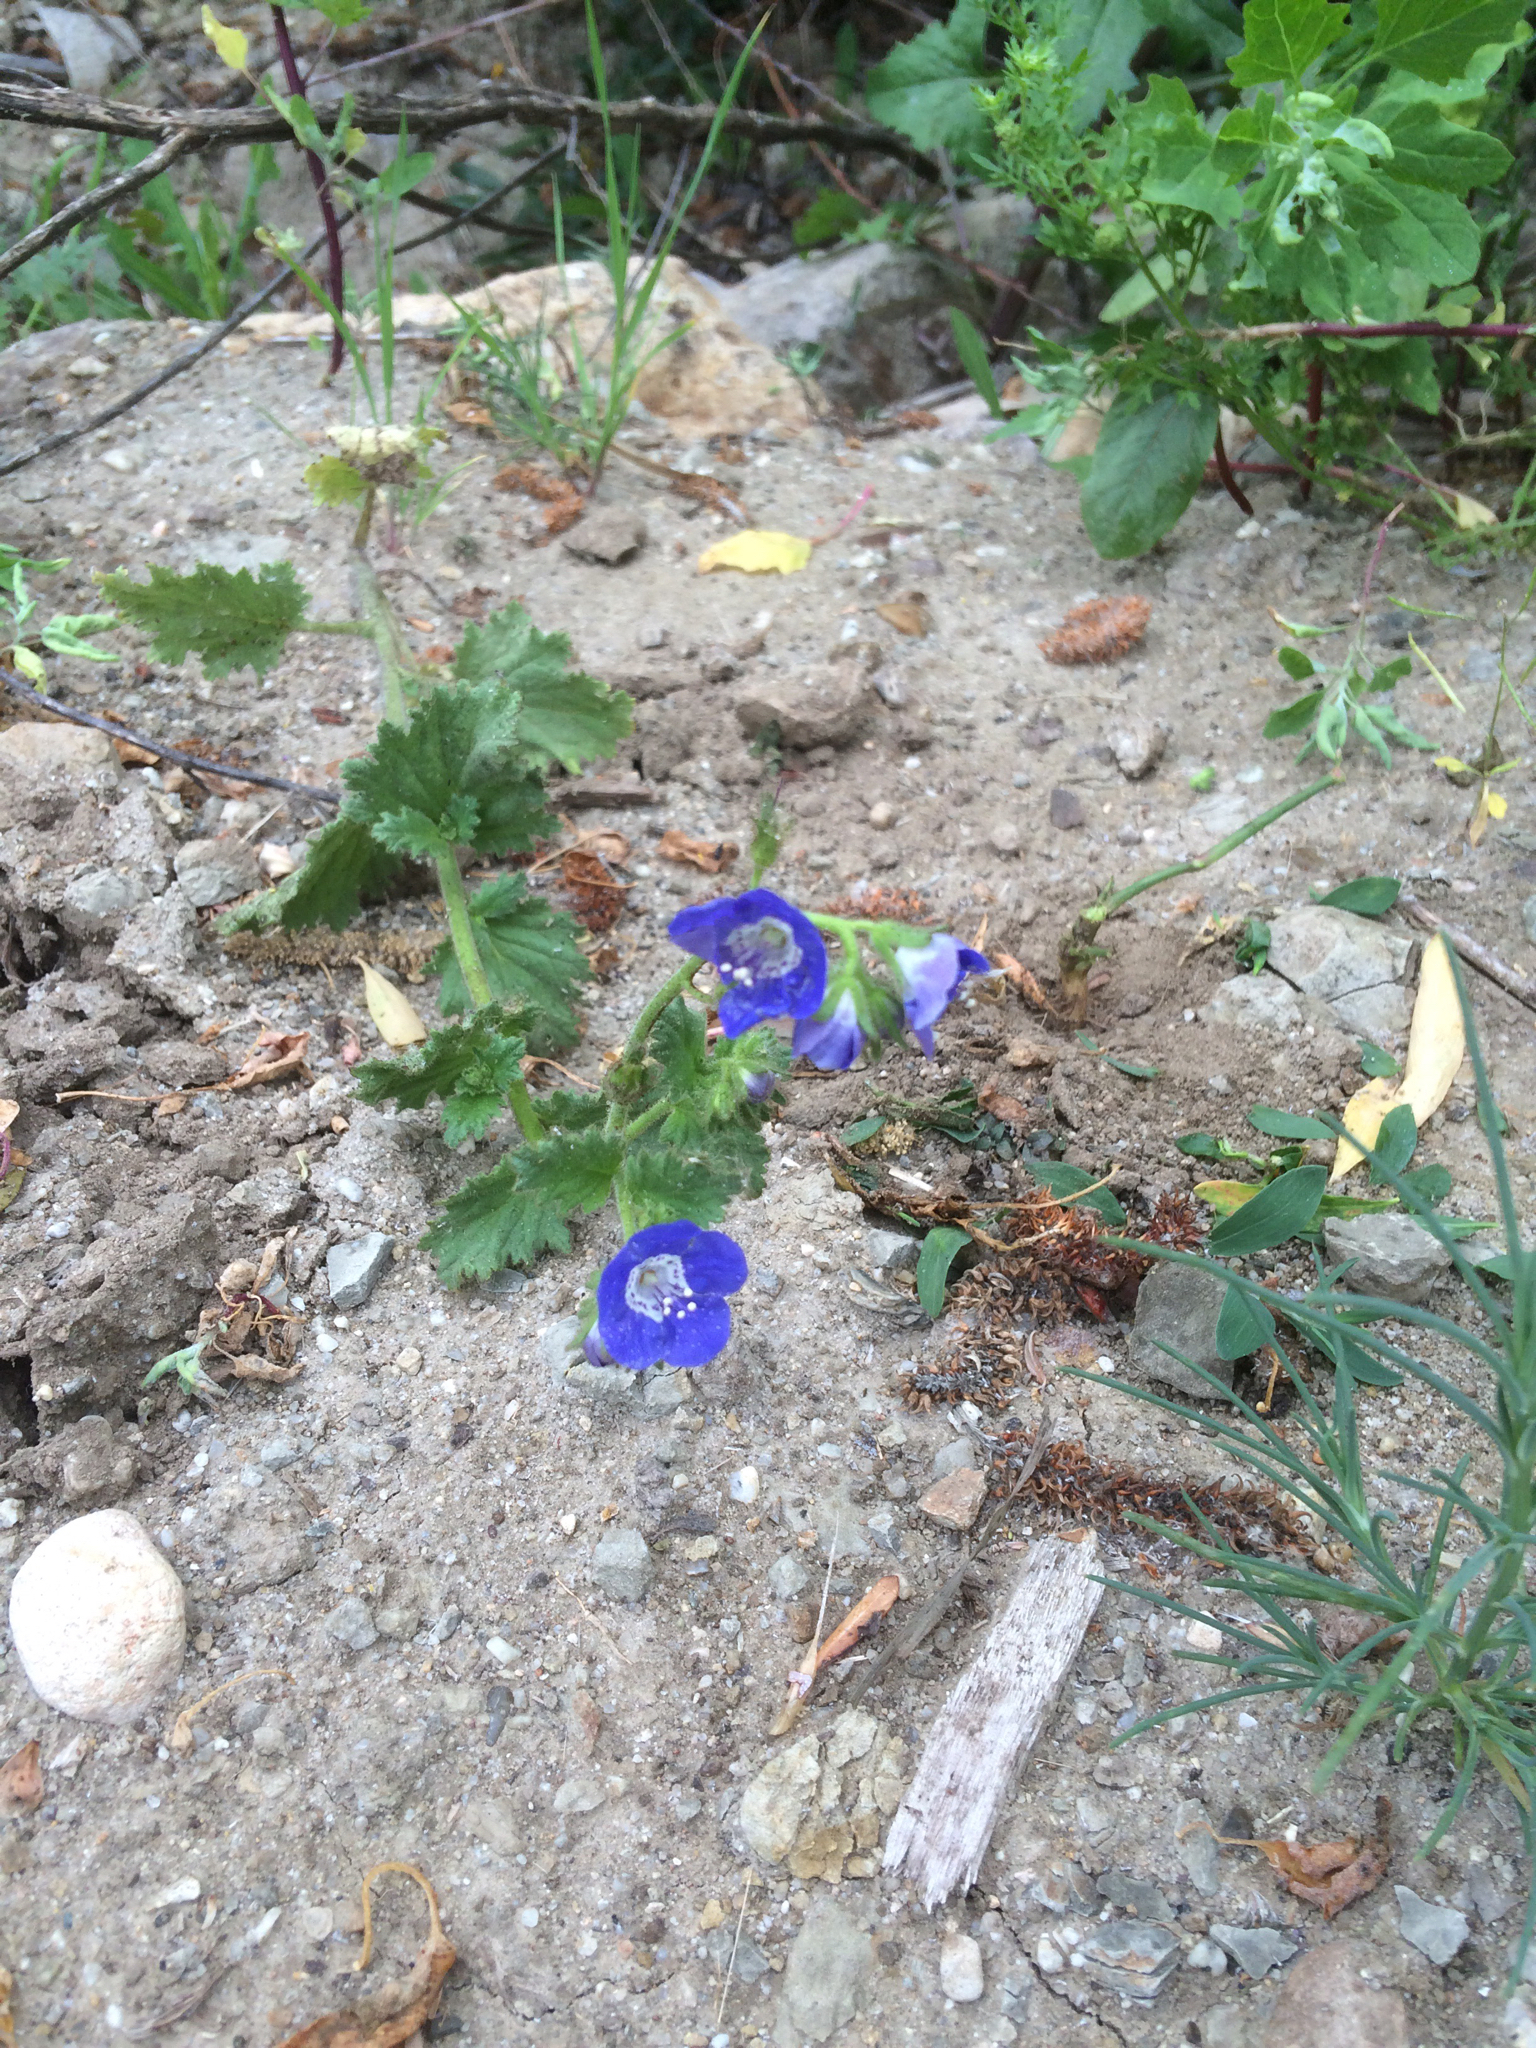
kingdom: Plantae
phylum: Tracheophyta
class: Magnoliopsida
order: Boraginales
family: Hydrophyllaceae
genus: Phacelia
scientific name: Phacelia viscida
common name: Sticky phacelia
